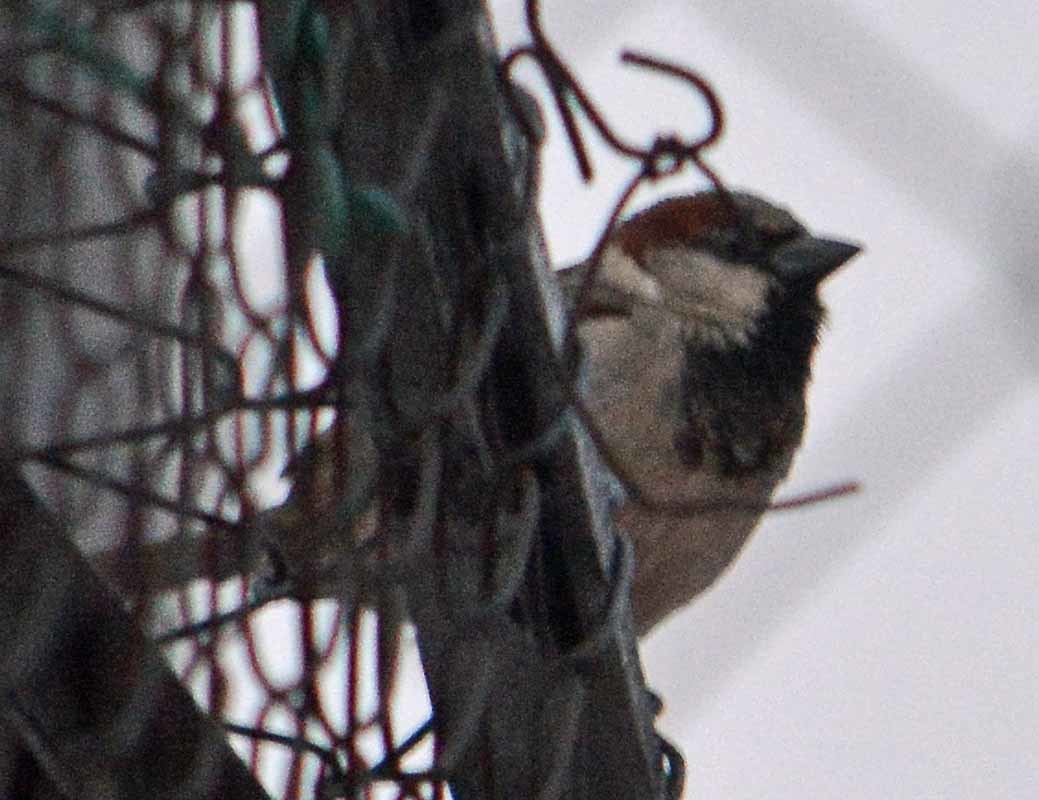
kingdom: Animalia
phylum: Chordata
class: Aves
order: Passeriformes
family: Passeridae
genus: Passer
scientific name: Passer domesticus
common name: House sparrow
